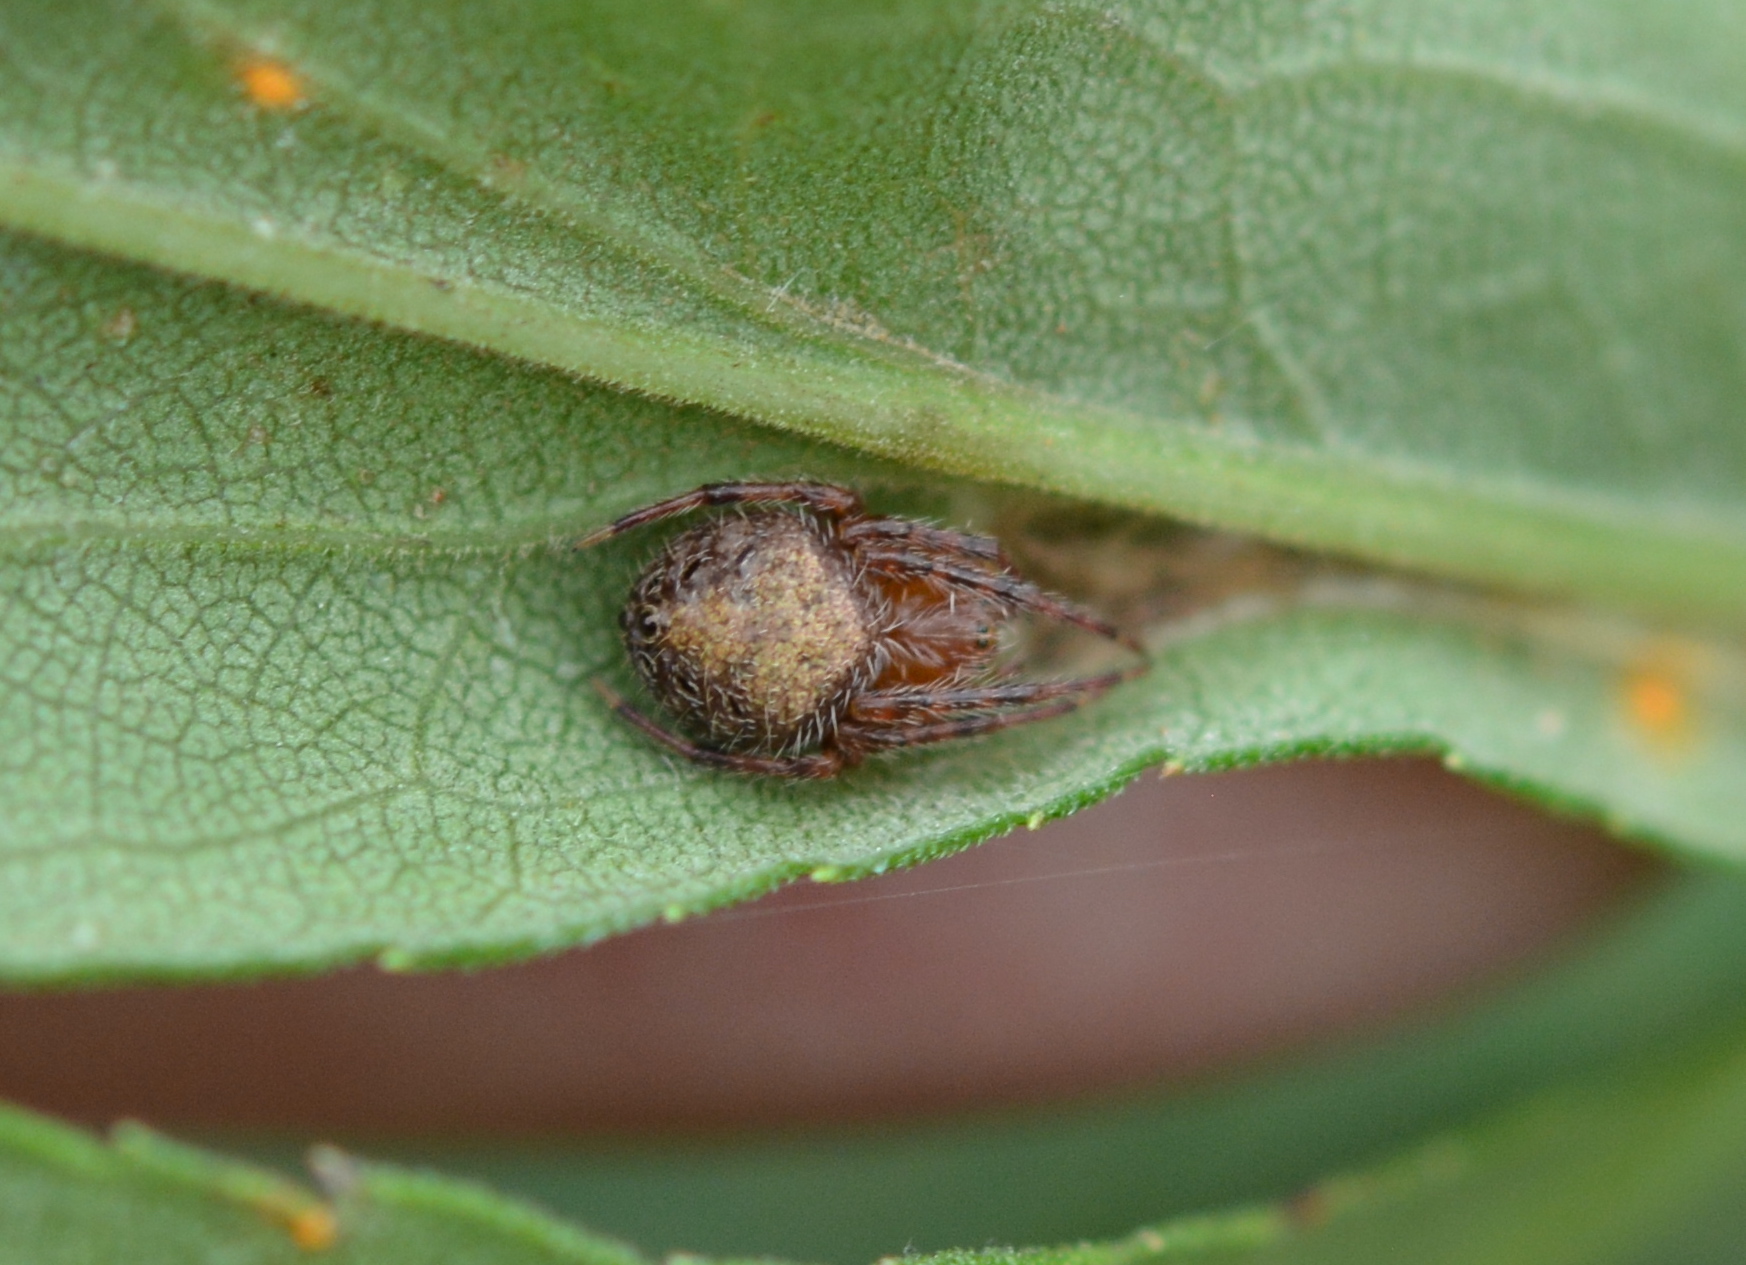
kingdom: Animalia
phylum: Arthropoda
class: Arachnida
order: Araneae
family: Araneidae
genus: Eriophora
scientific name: Eriophora ravilla
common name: Orb weavers
